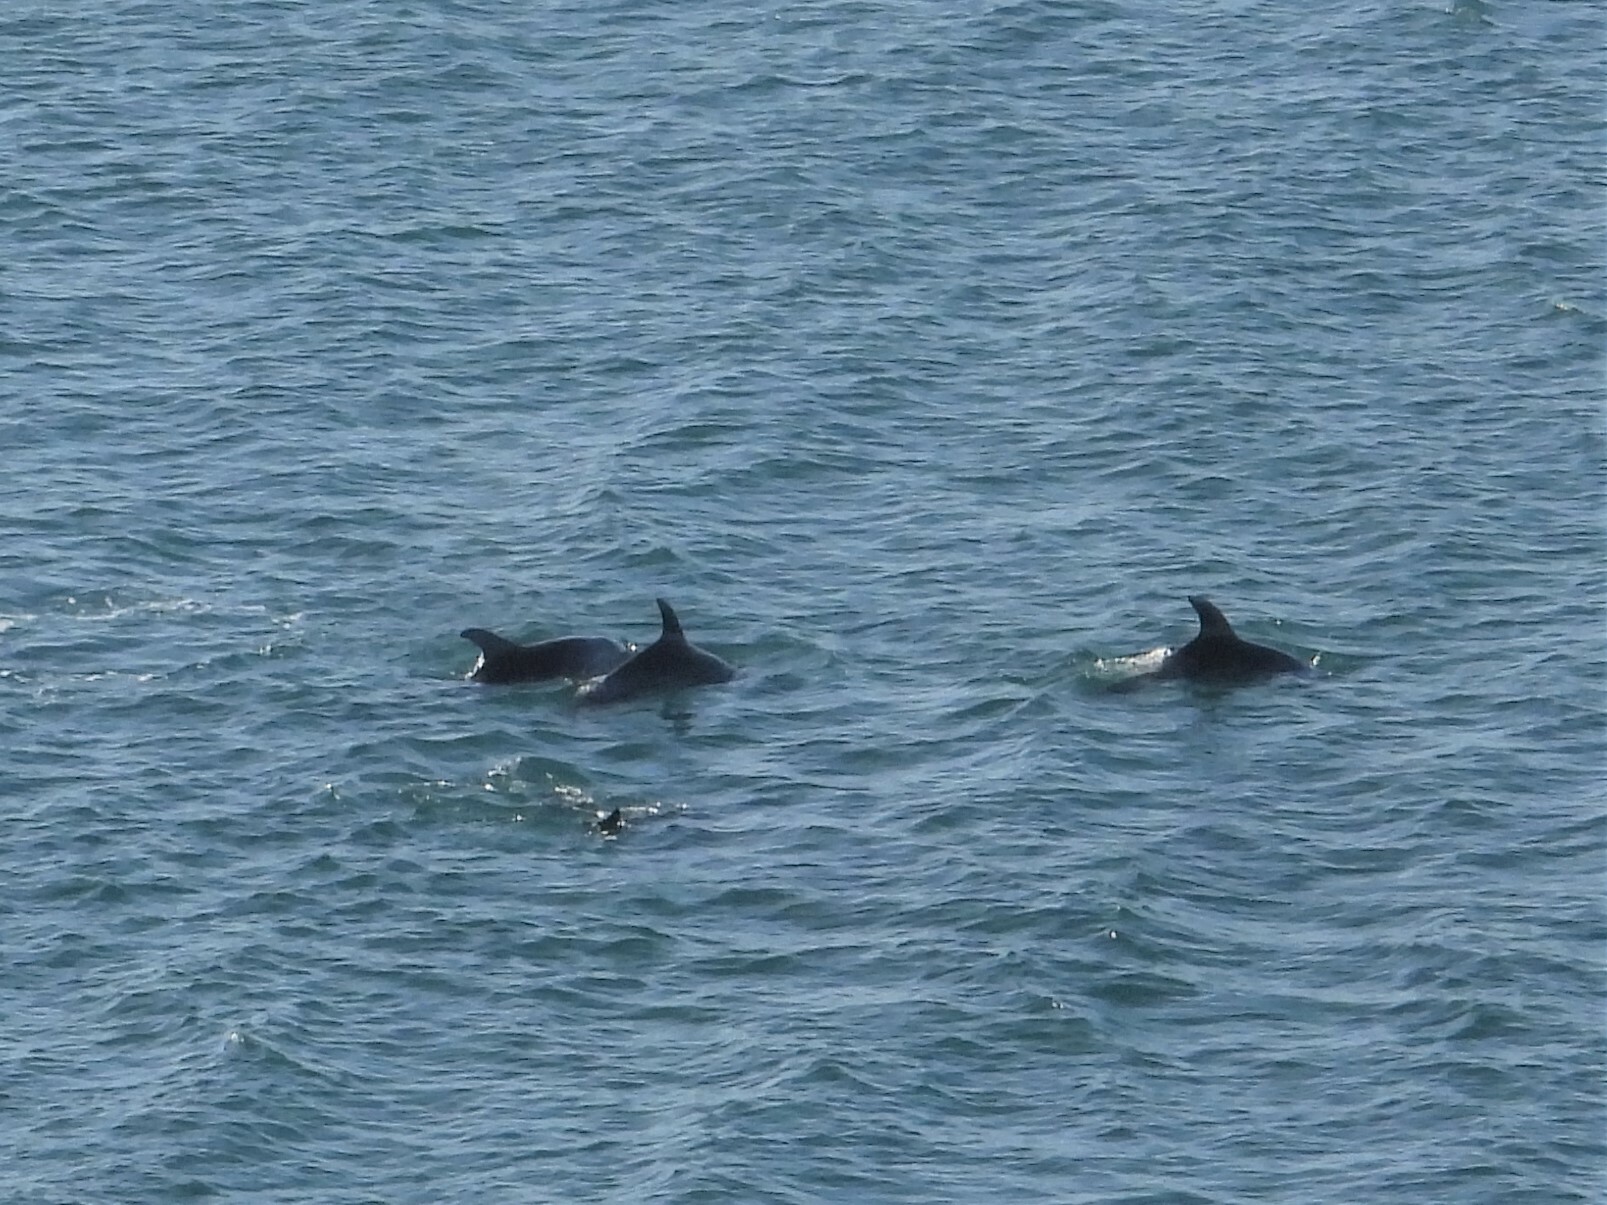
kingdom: Animalia
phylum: Chordata
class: Mammalia
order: Cetacea
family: Delphinidae
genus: Tursiops
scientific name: Tursiops truncatus
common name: Bottlenose dolphin
